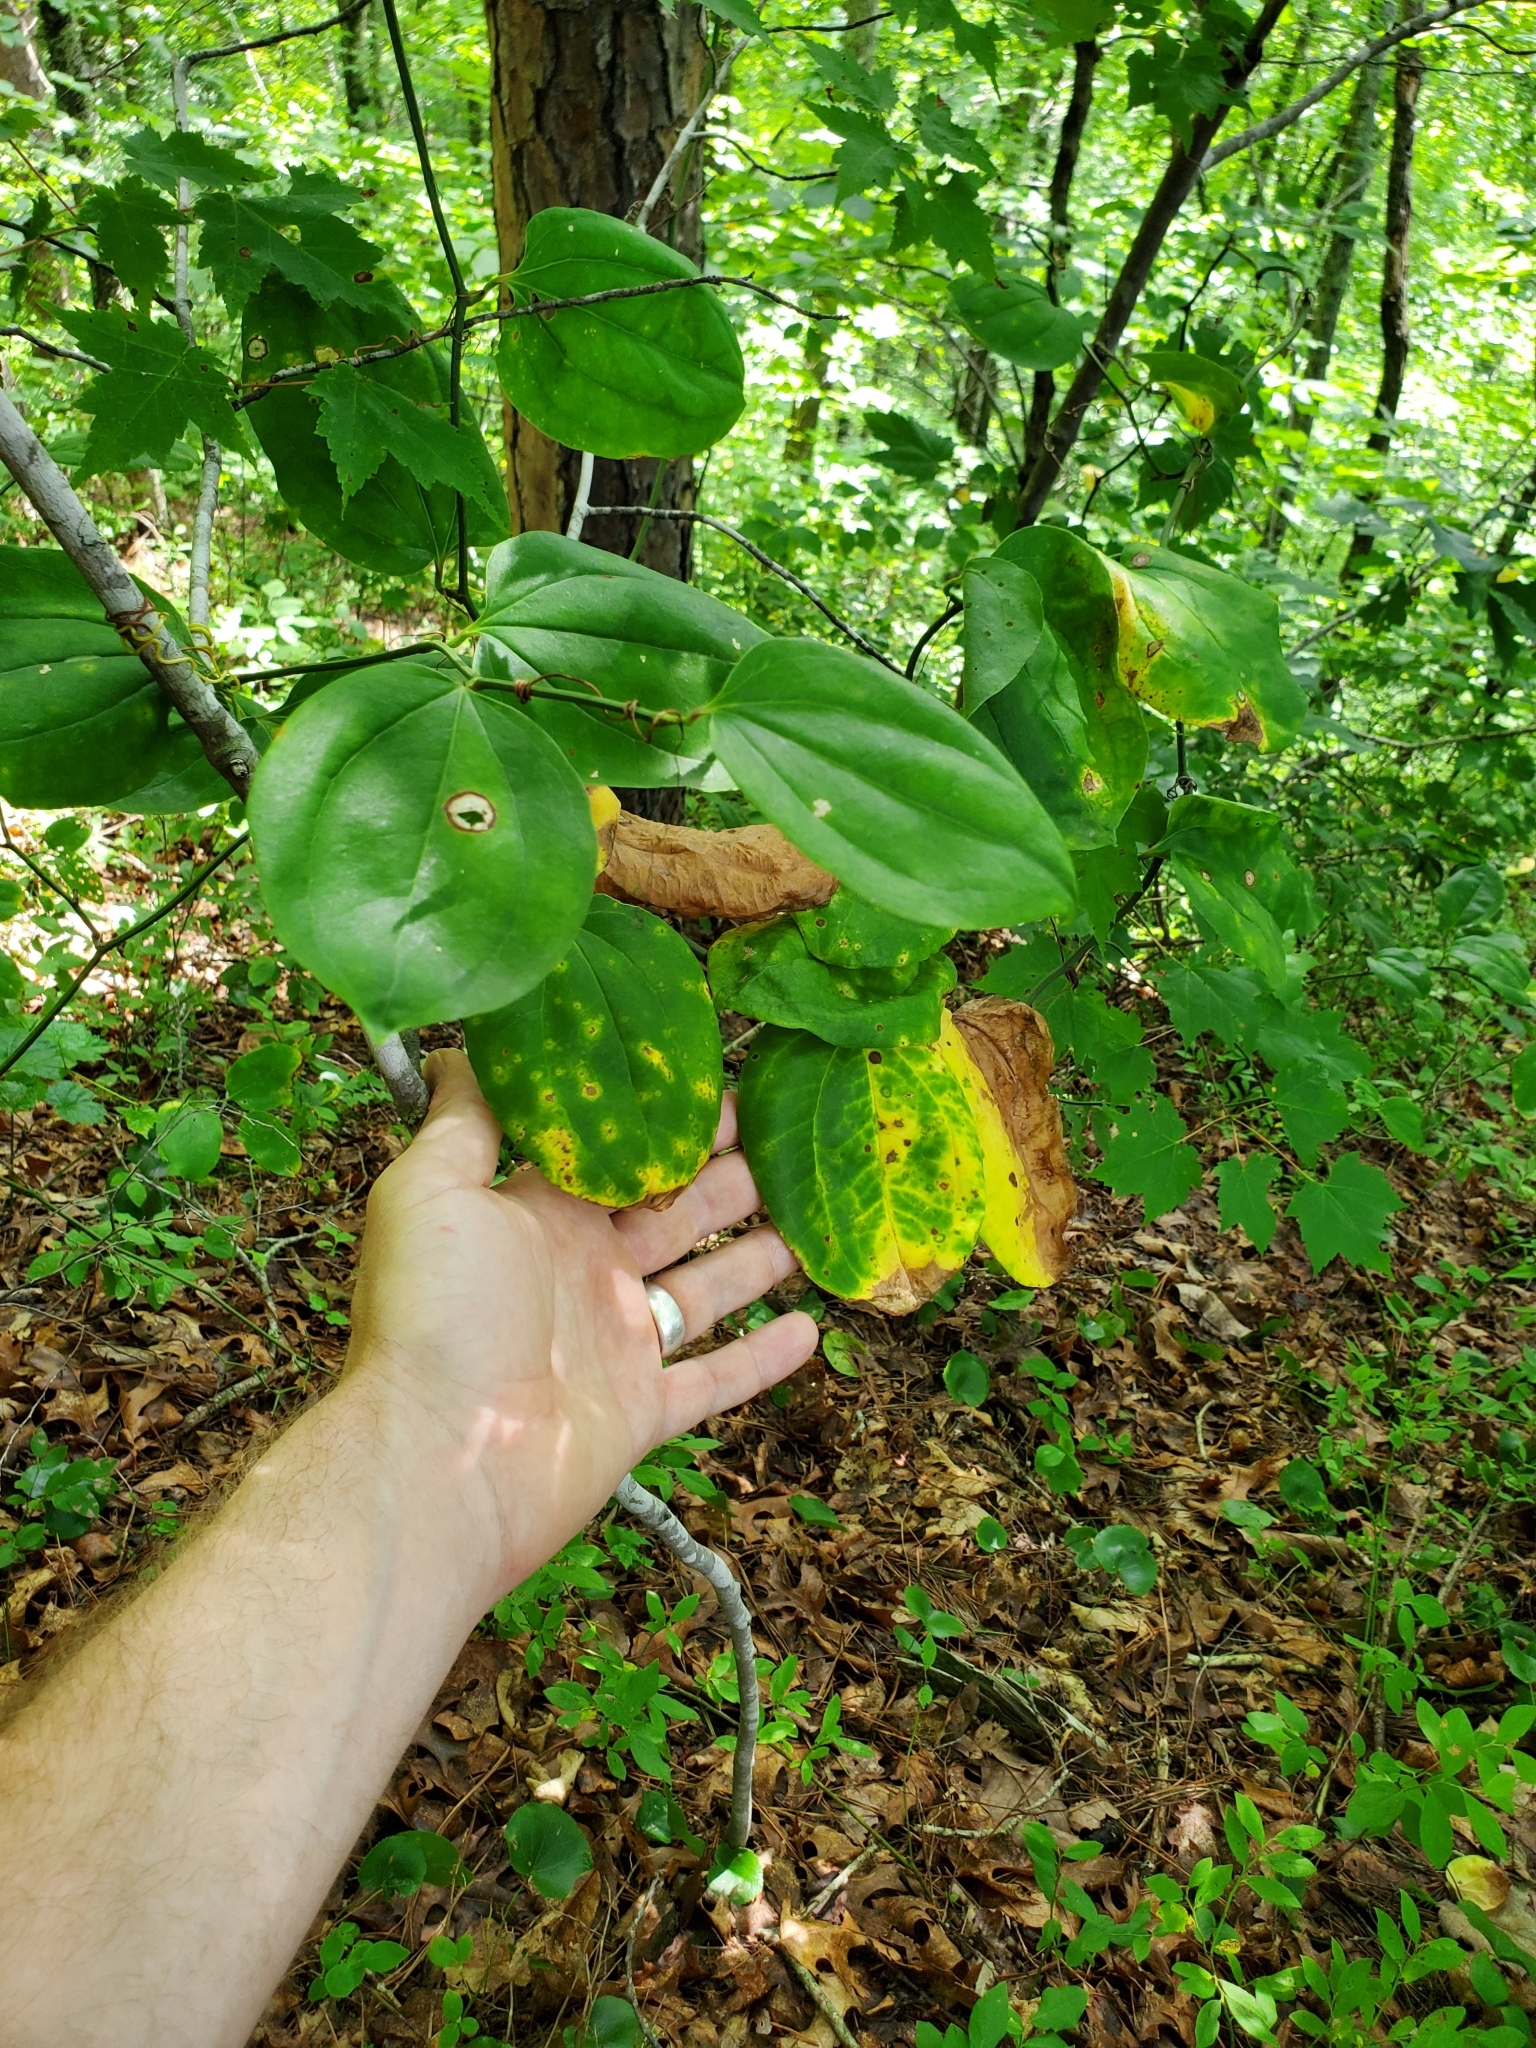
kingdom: Plantae
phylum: Tracheophyta
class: Liliopsida
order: Liliales
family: Smilacaceae
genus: Smilax
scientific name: Smilax rotundifolia
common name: Bullbriar
